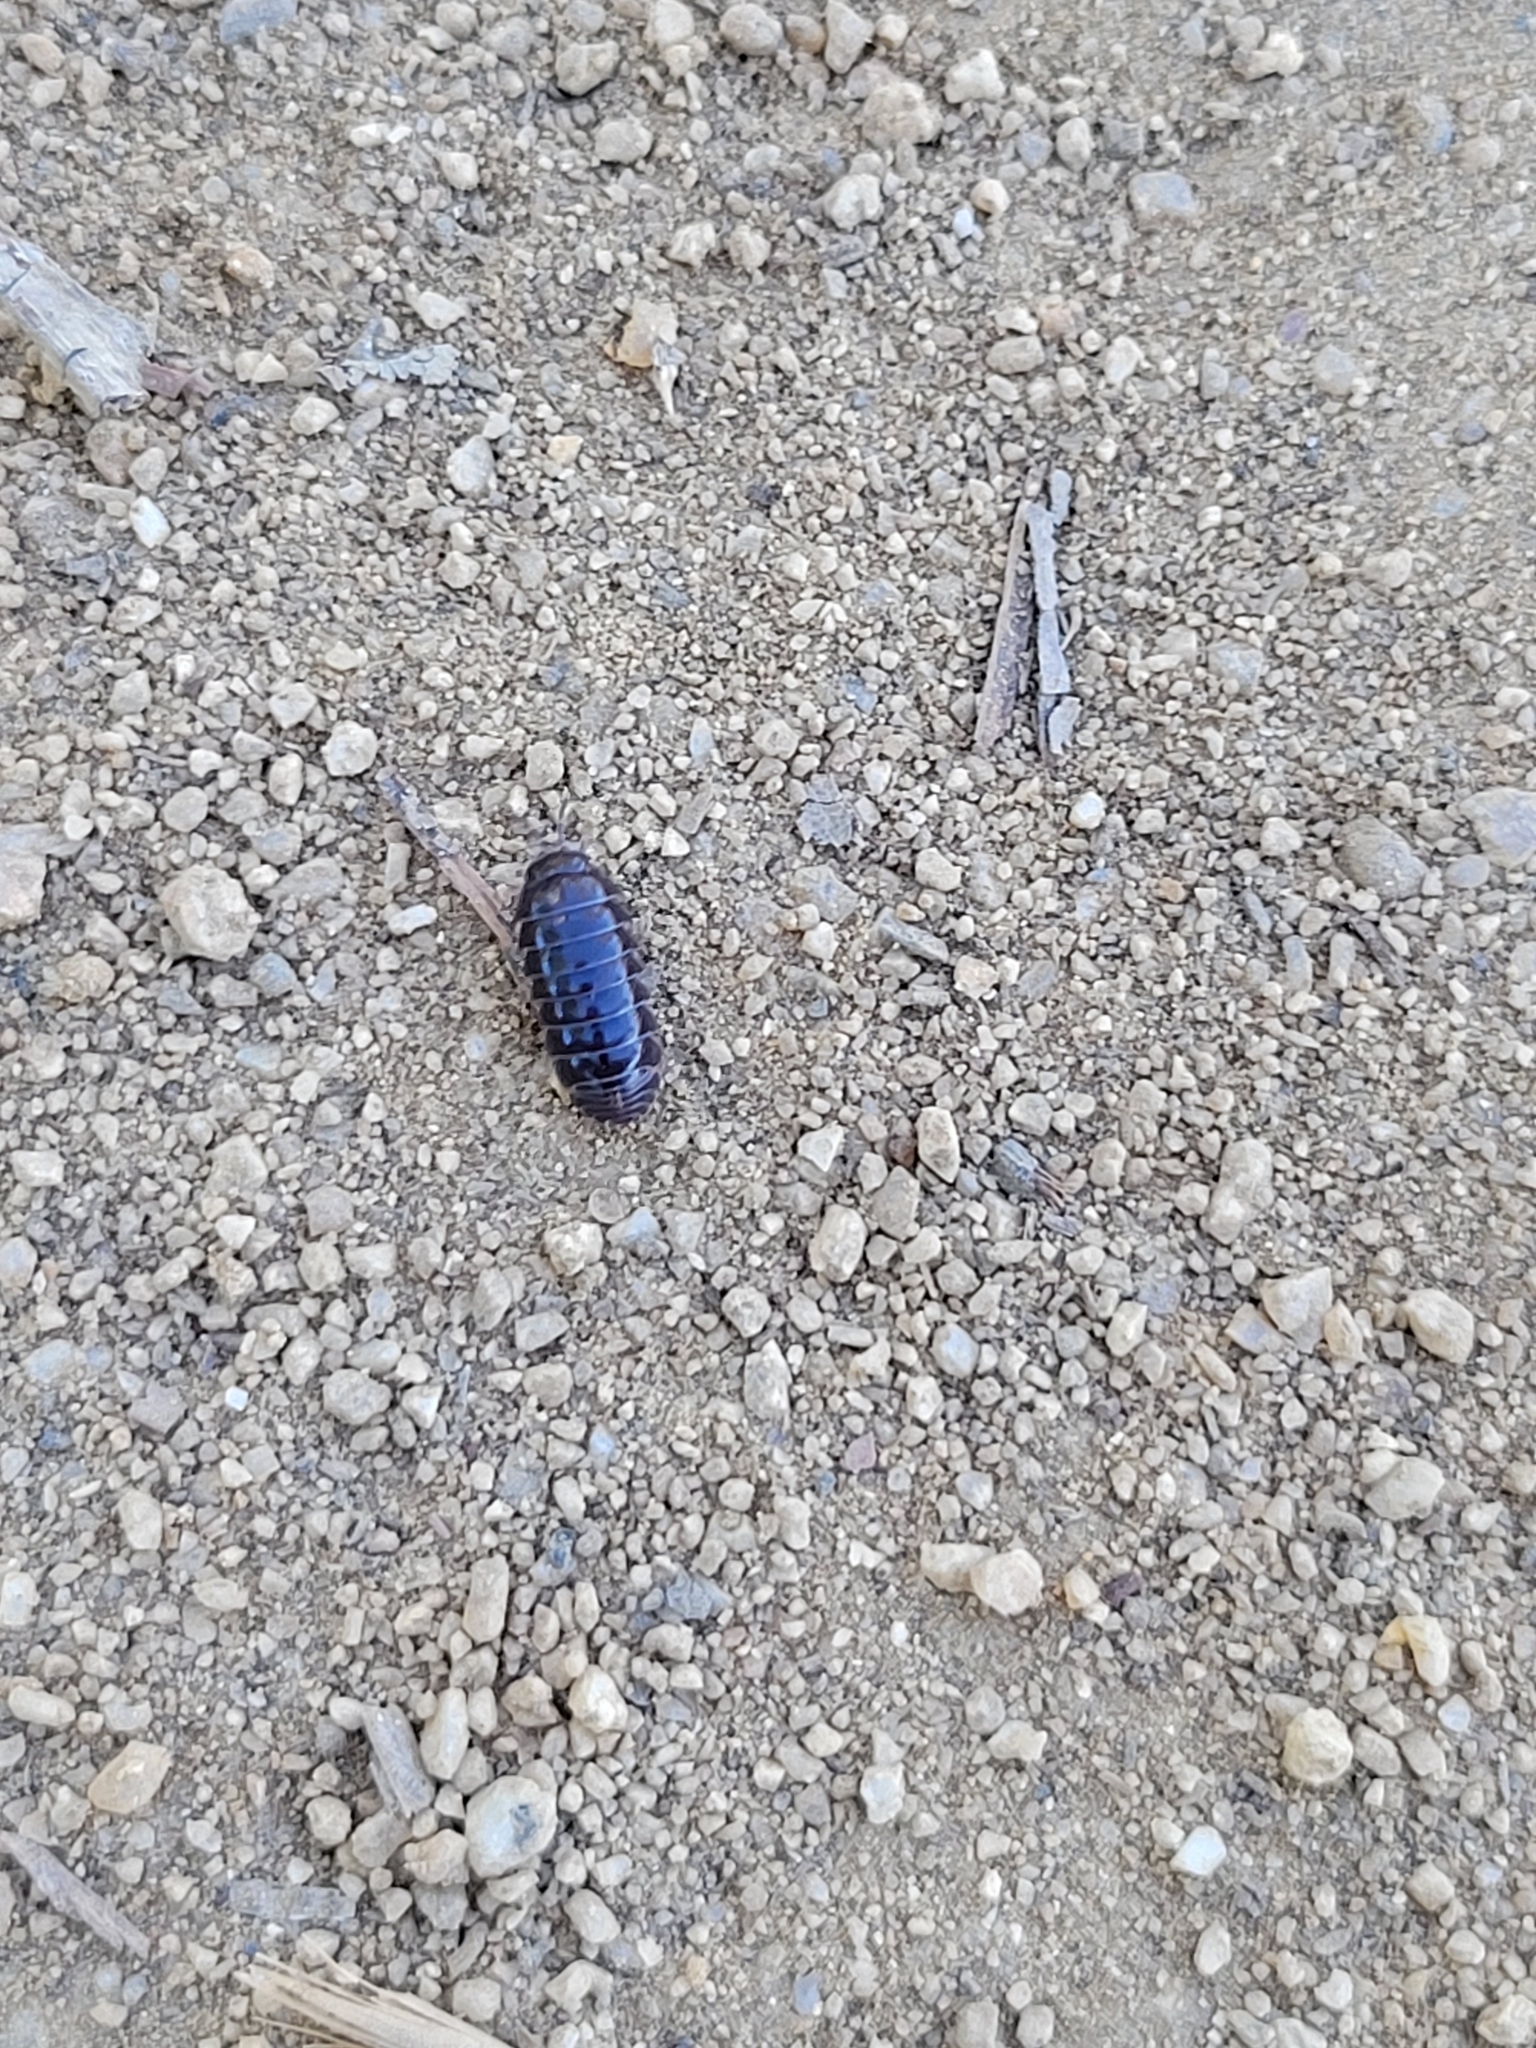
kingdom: Animalia
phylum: Arthropoda
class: Malacostraca
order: Isopoda
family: Armadillidiidae
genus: Armadillidium
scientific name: Armadillidium vulgare
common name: Common pill woodlouse
